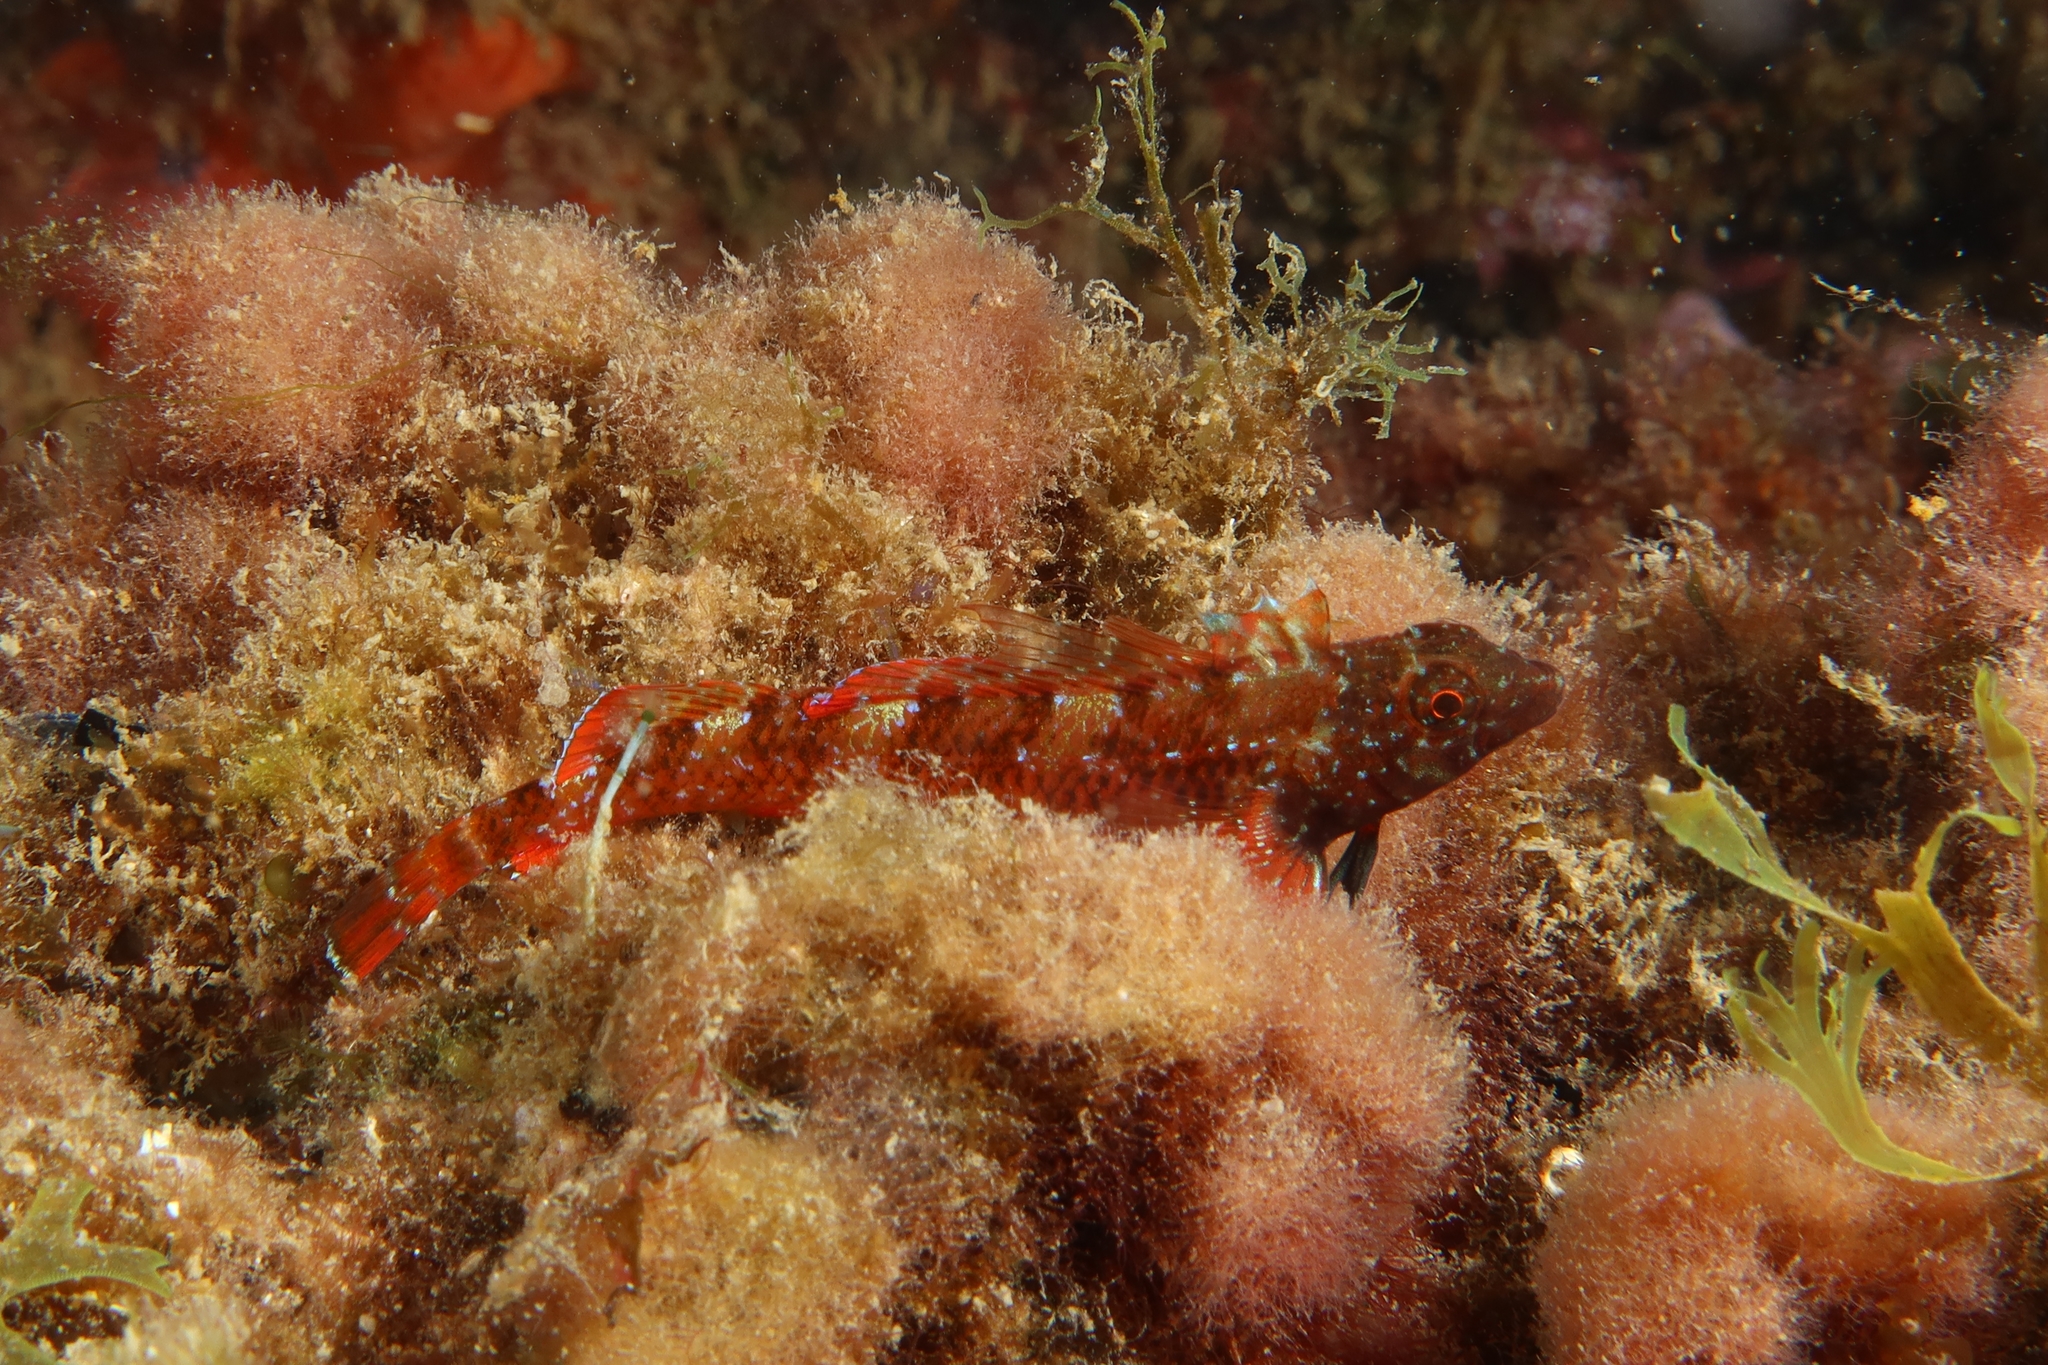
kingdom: Animalia
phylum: Chordata
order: Perciformes
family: Tripterygiidae
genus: Tripterygion
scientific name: Tripterygion tripteronotum
